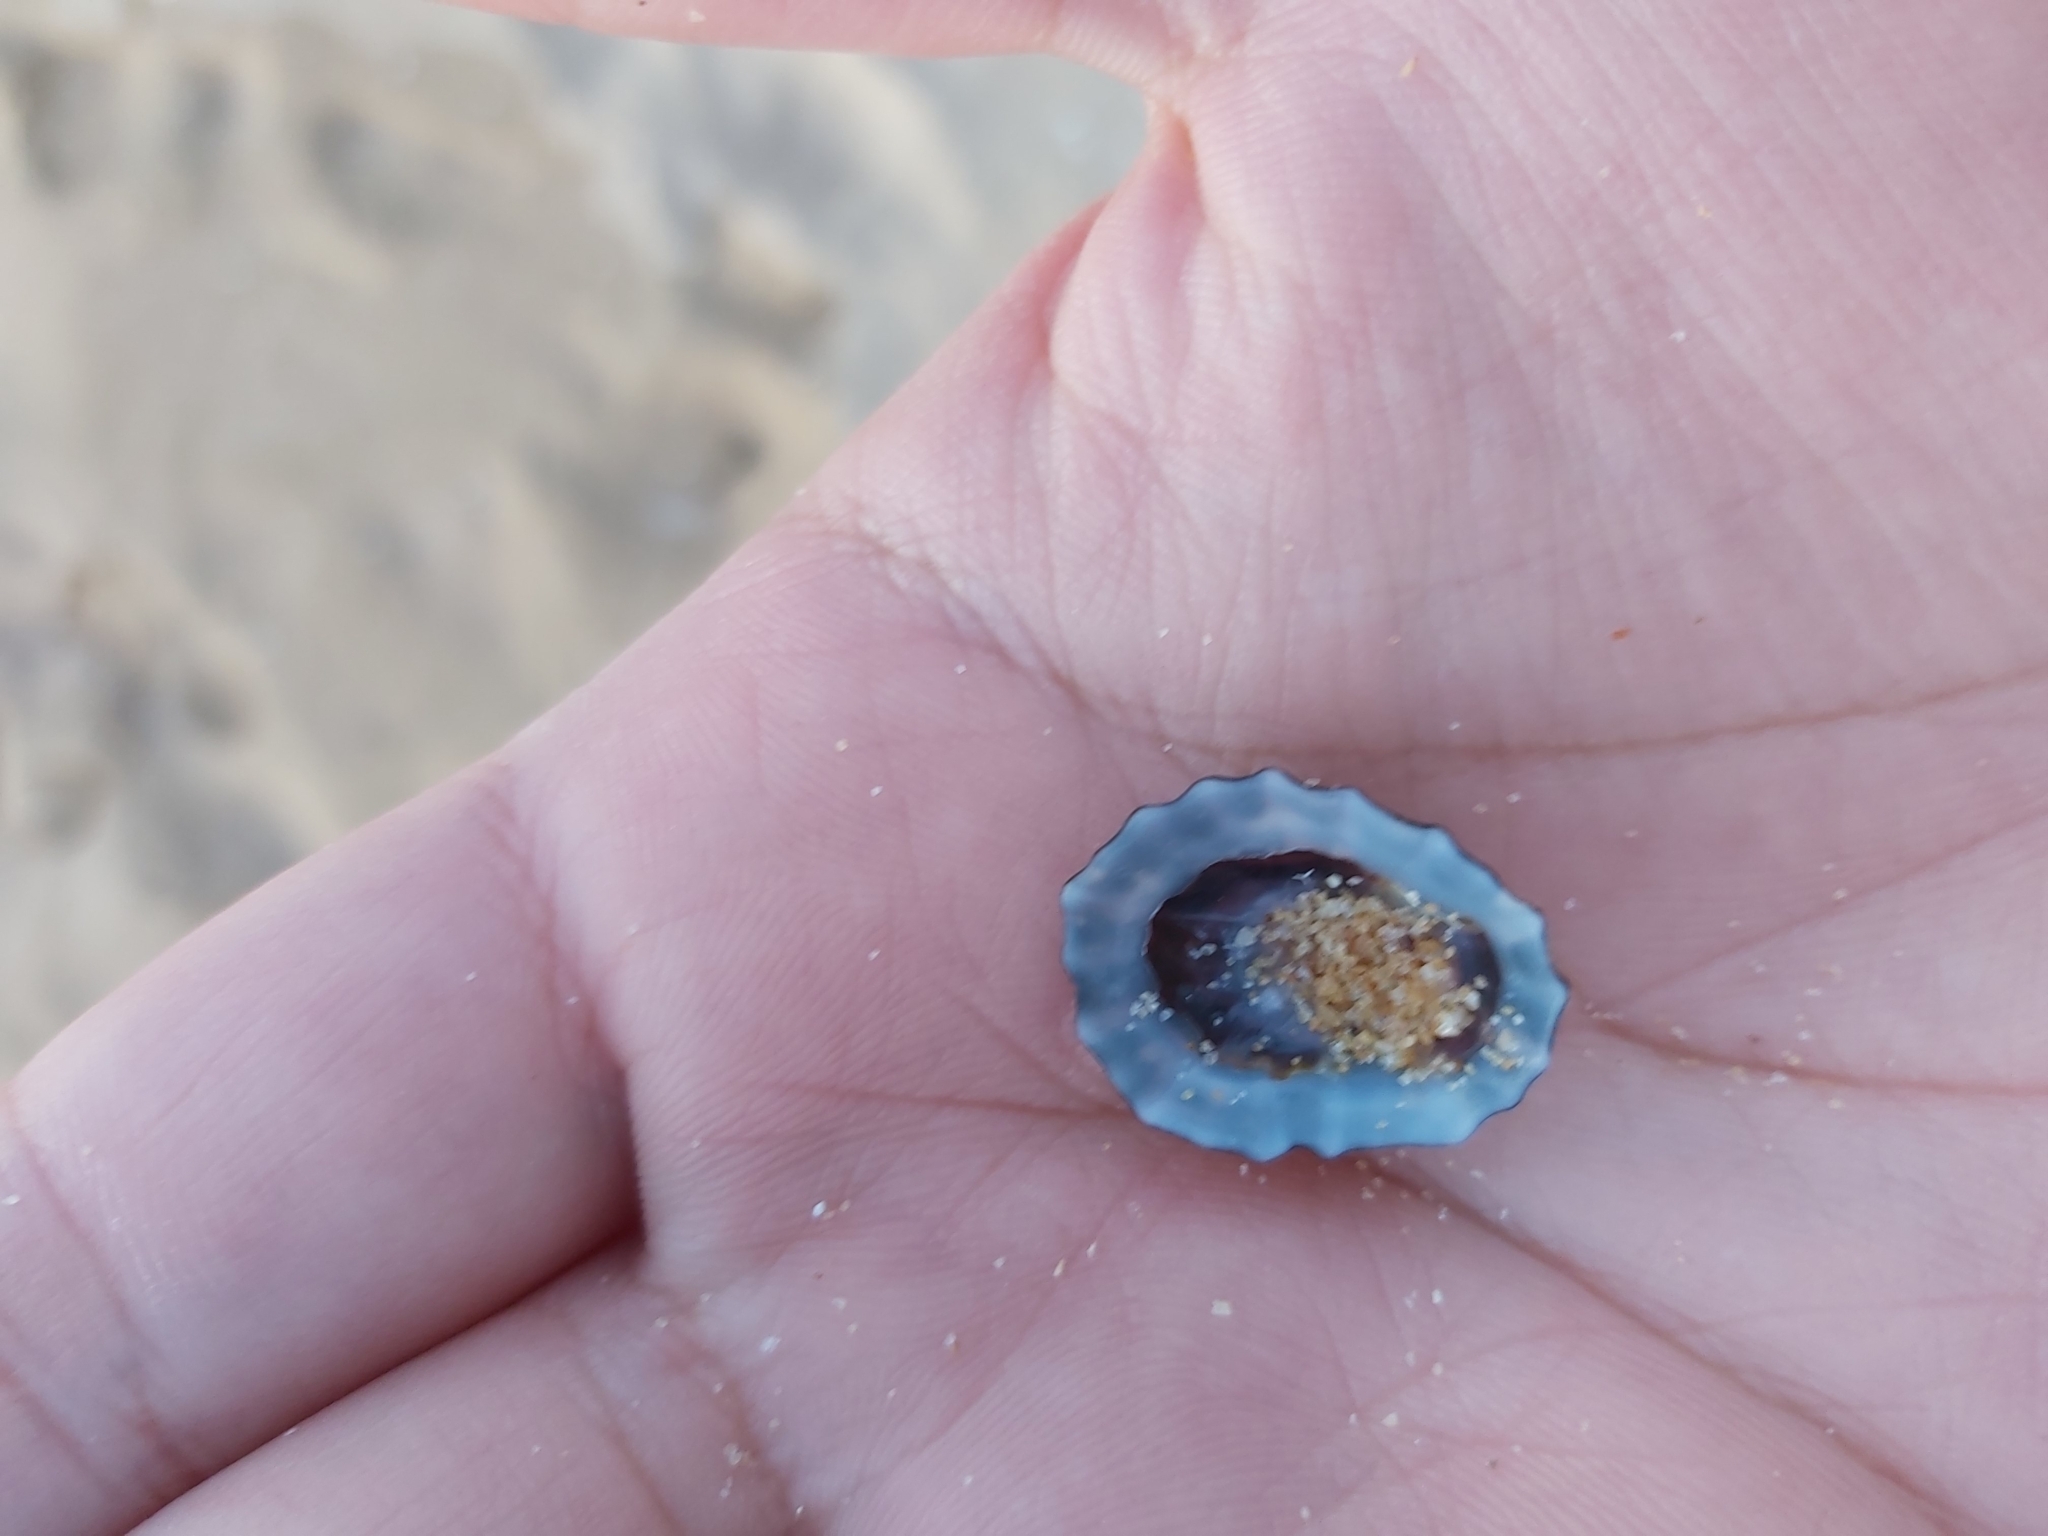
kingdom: Animalia
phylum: Mollusca
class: Gastropoda
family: Lottiidae
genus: Patelloida
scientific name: Patelloida alticostata
